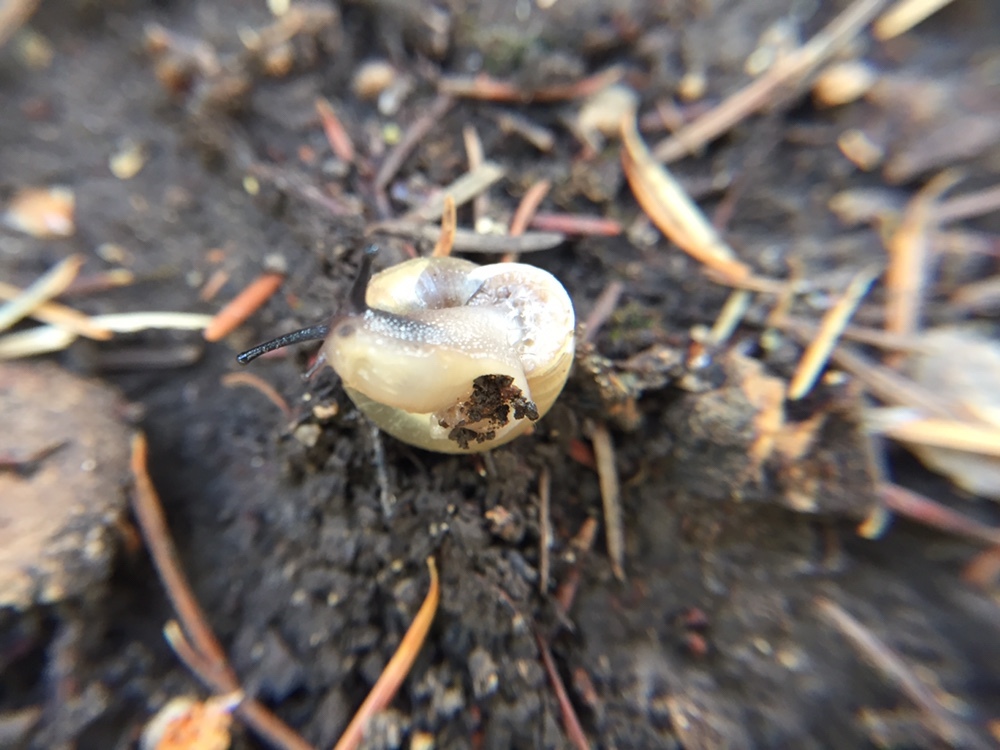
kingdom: Animalia
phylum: Mollusca
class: Gastropoda
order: Stylommatophora
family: Polygyridae
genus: Ashmunella
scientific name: Ashmunella rhyssa
